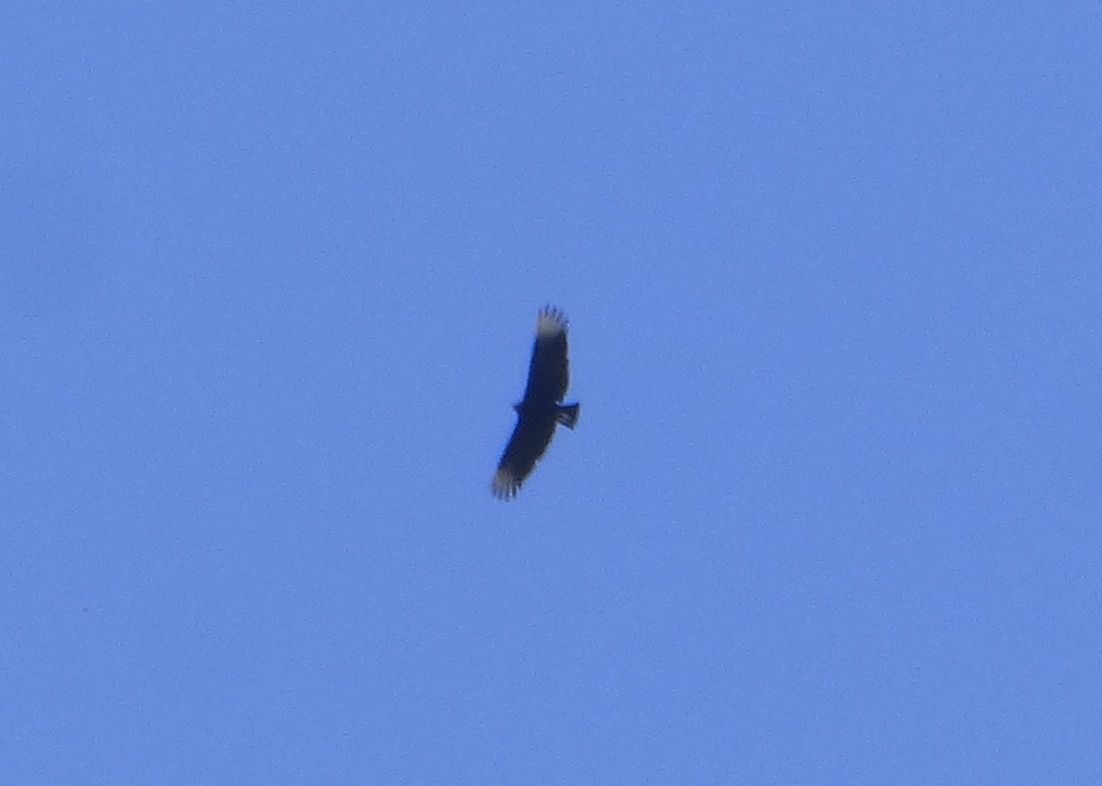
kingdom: Animalia
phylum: Chordata
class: Aves
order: Accipitriformes
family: Cathartidae
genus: Coragyps
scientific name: Coragyps atratus
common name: Black vulture
